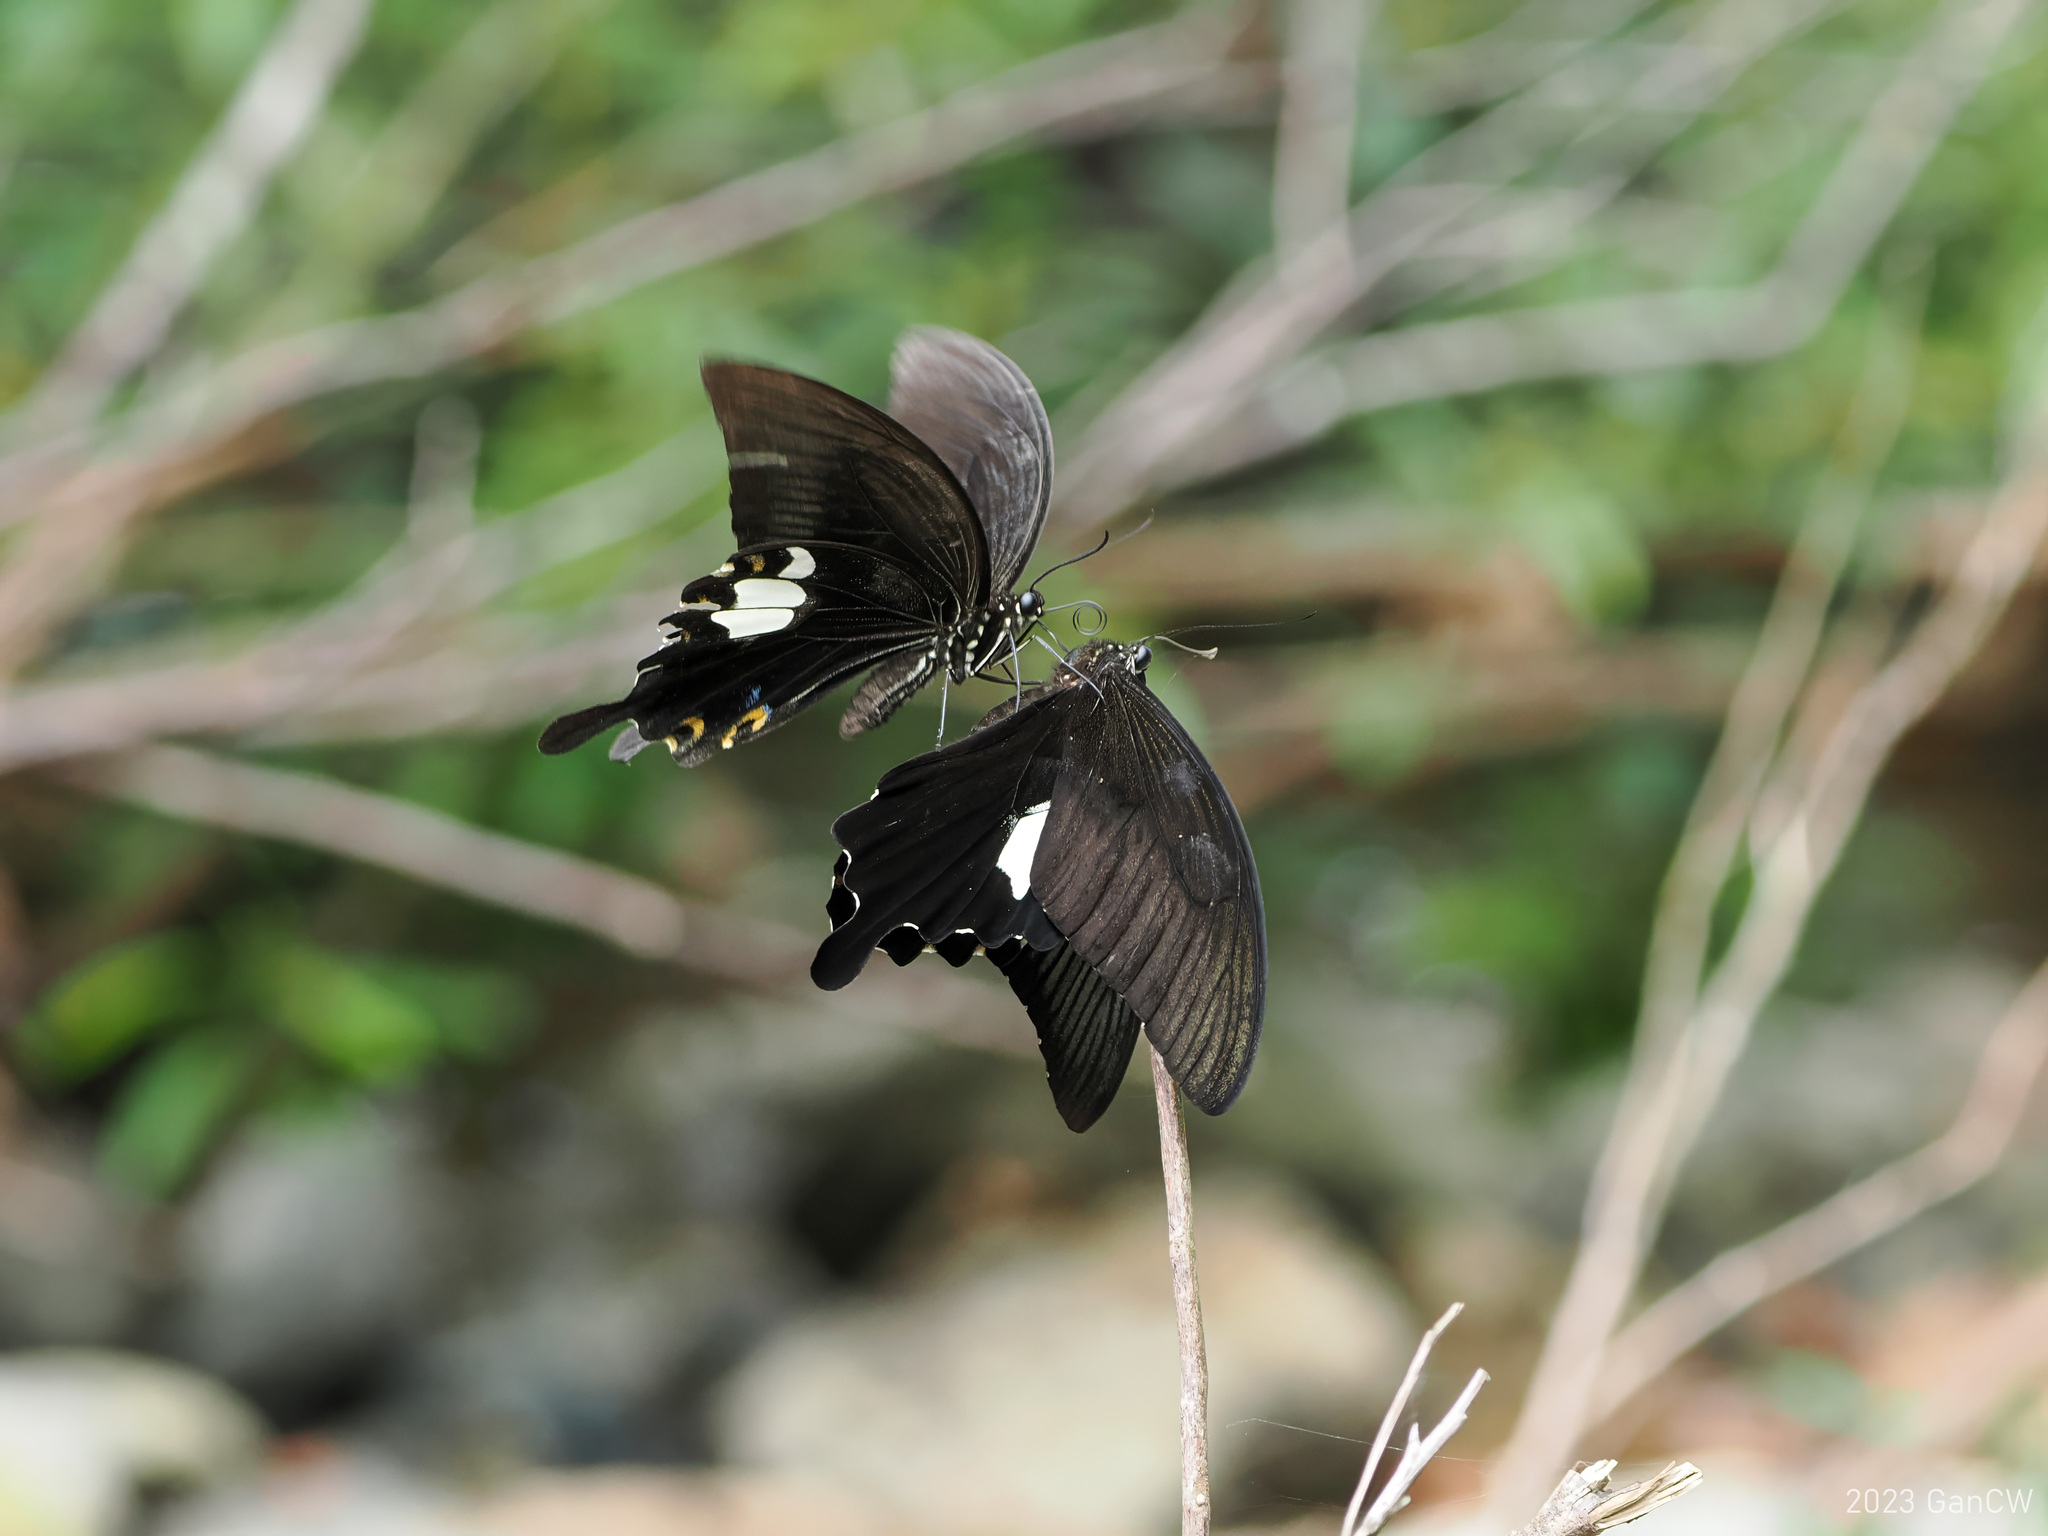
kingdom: Animalia
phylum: Arthropoda
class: Insecta
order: Lepidoptera
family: Papilionidae
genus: Papilio
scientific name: Papilio sataspes
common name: Sulawesi red helen
